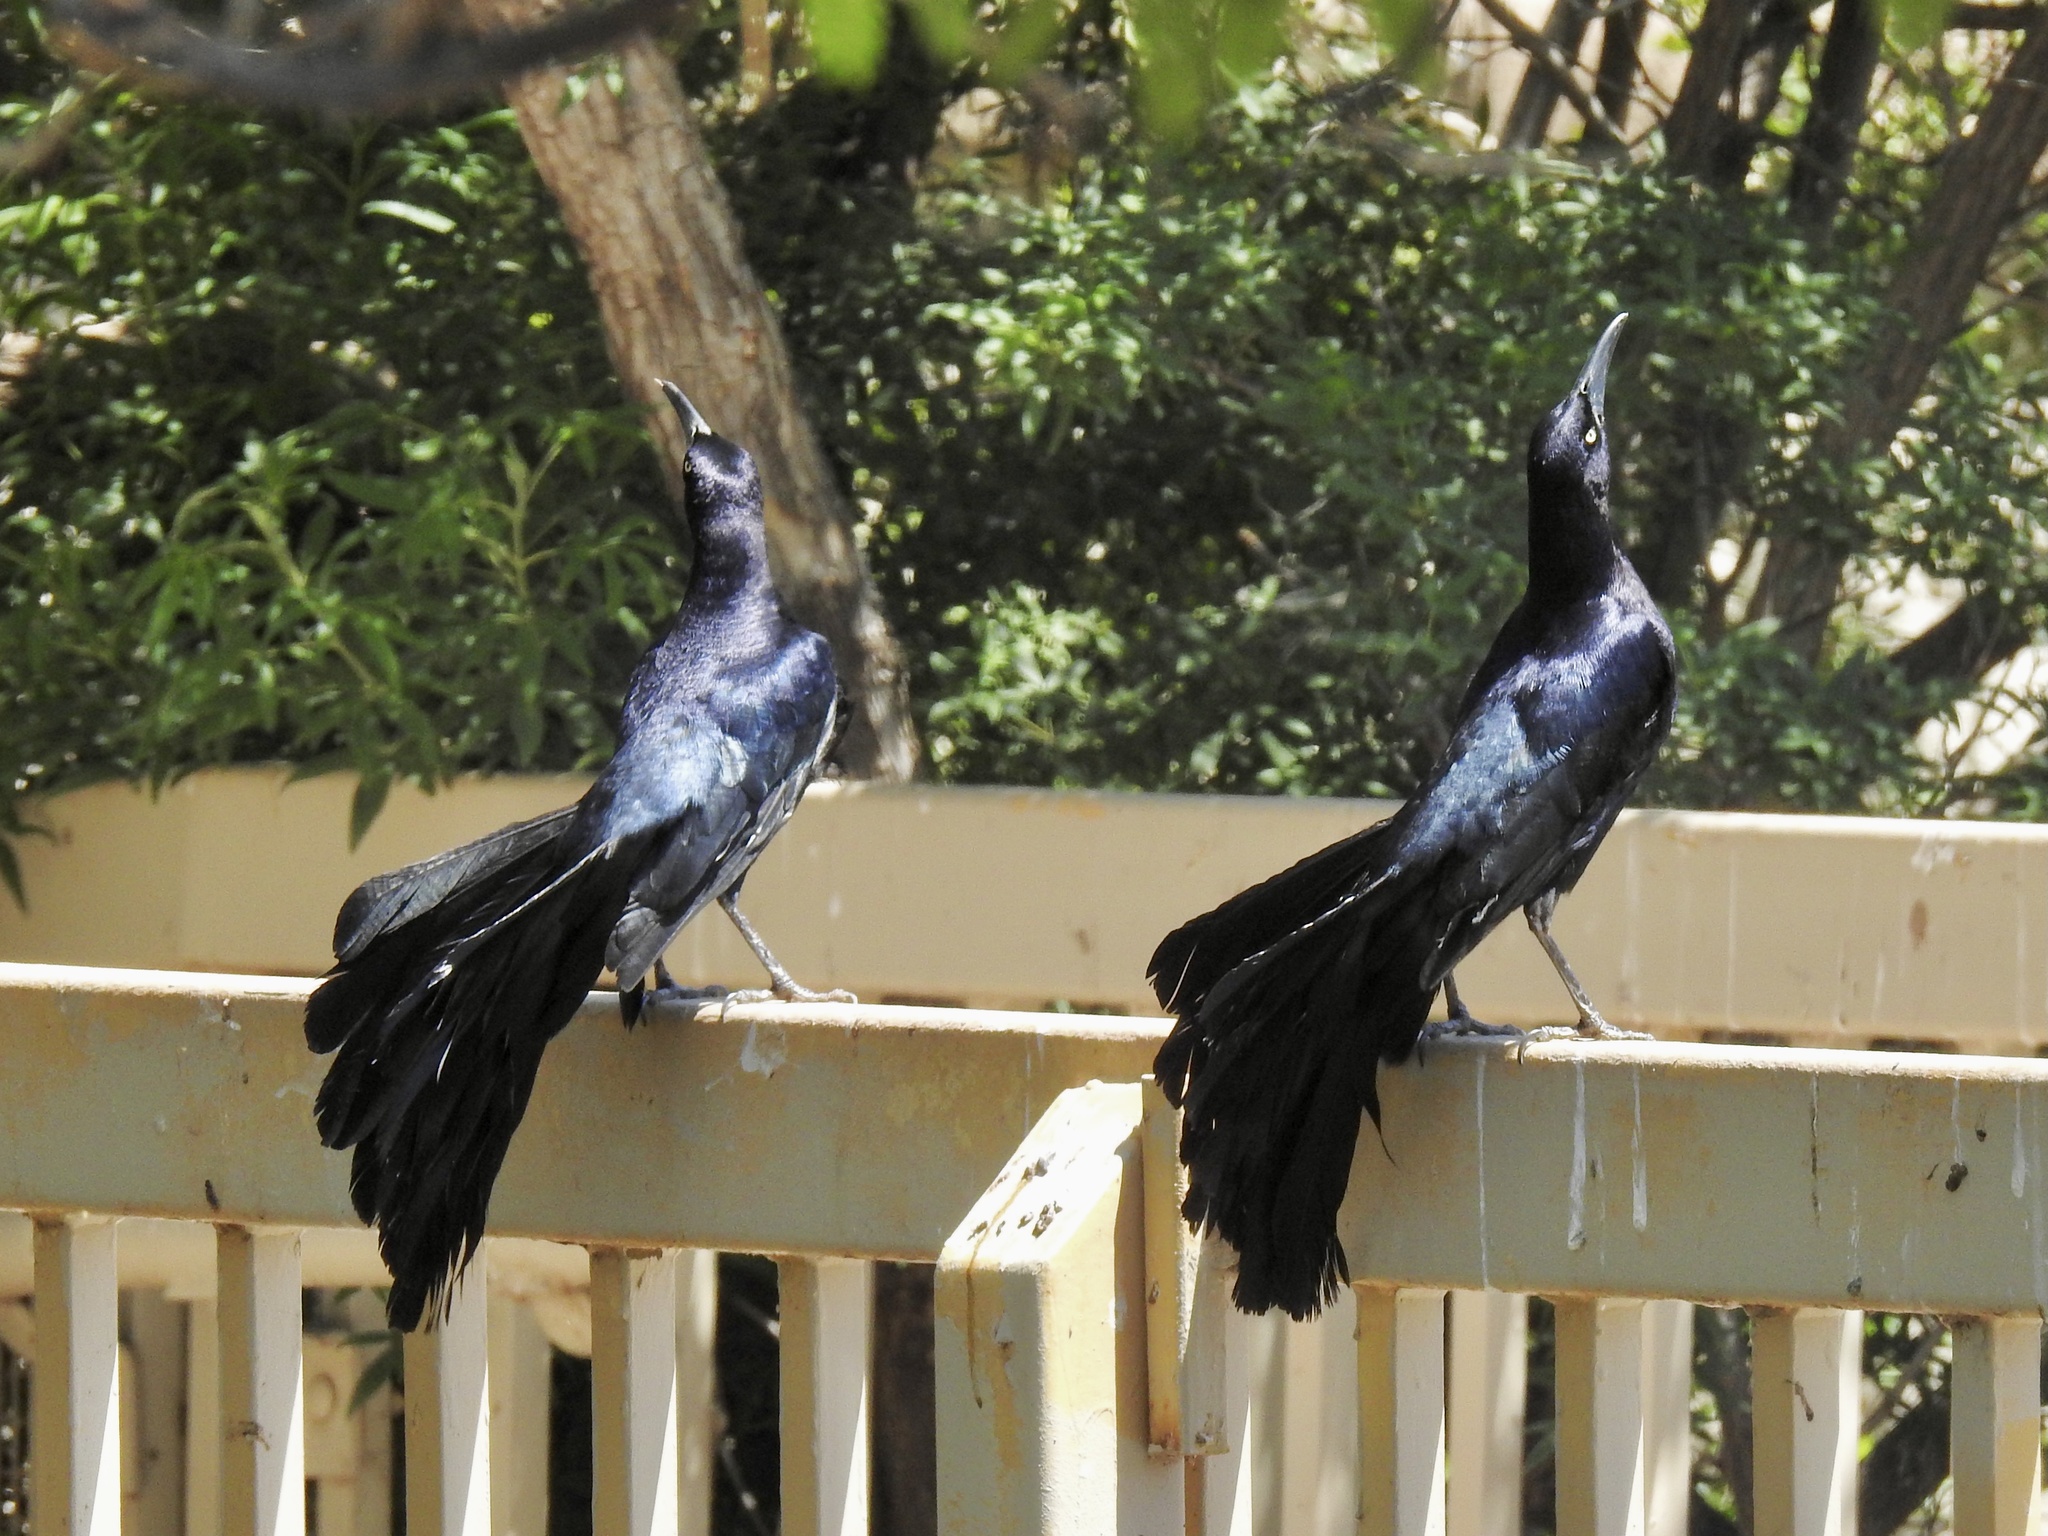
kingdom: Animalia
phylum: Chordata
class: Aves
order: Passeriformes
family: Icteridae
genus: Quiscalus
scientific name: Quiscalus mexicanus
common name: Great-tailed grackle
